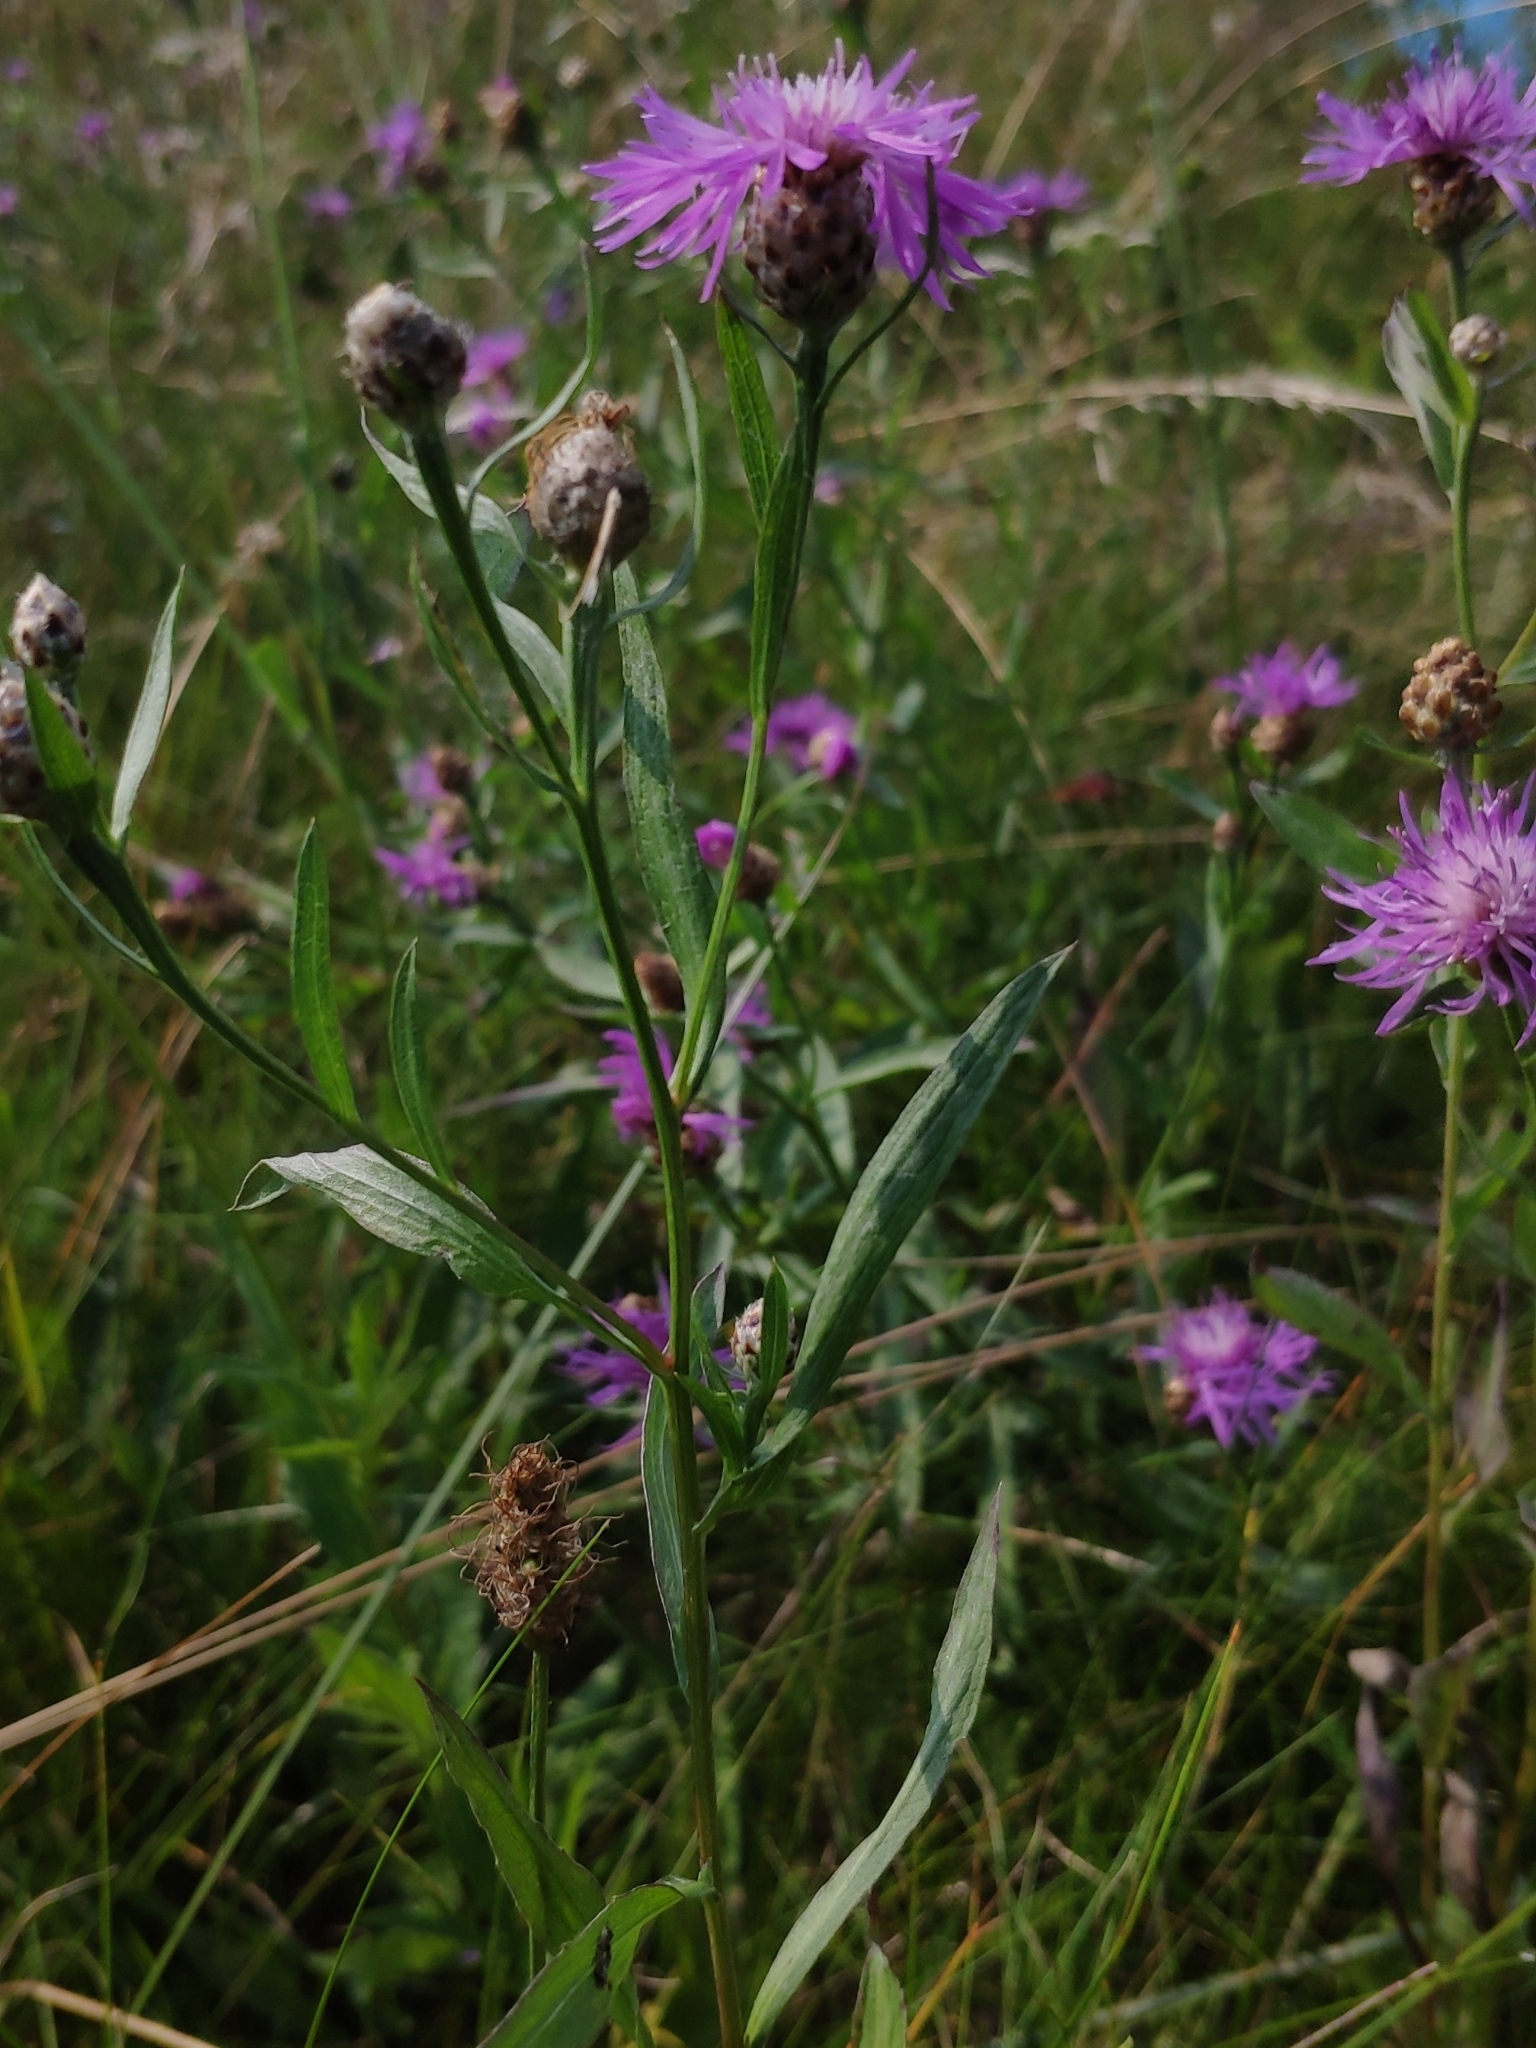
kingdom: Plantae
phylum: Tracheophyta
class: Magnoliopsida
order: Asterales
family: Asteraceae
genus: Centaurea
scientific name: Centaurea jacea
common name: Brown knapweed
